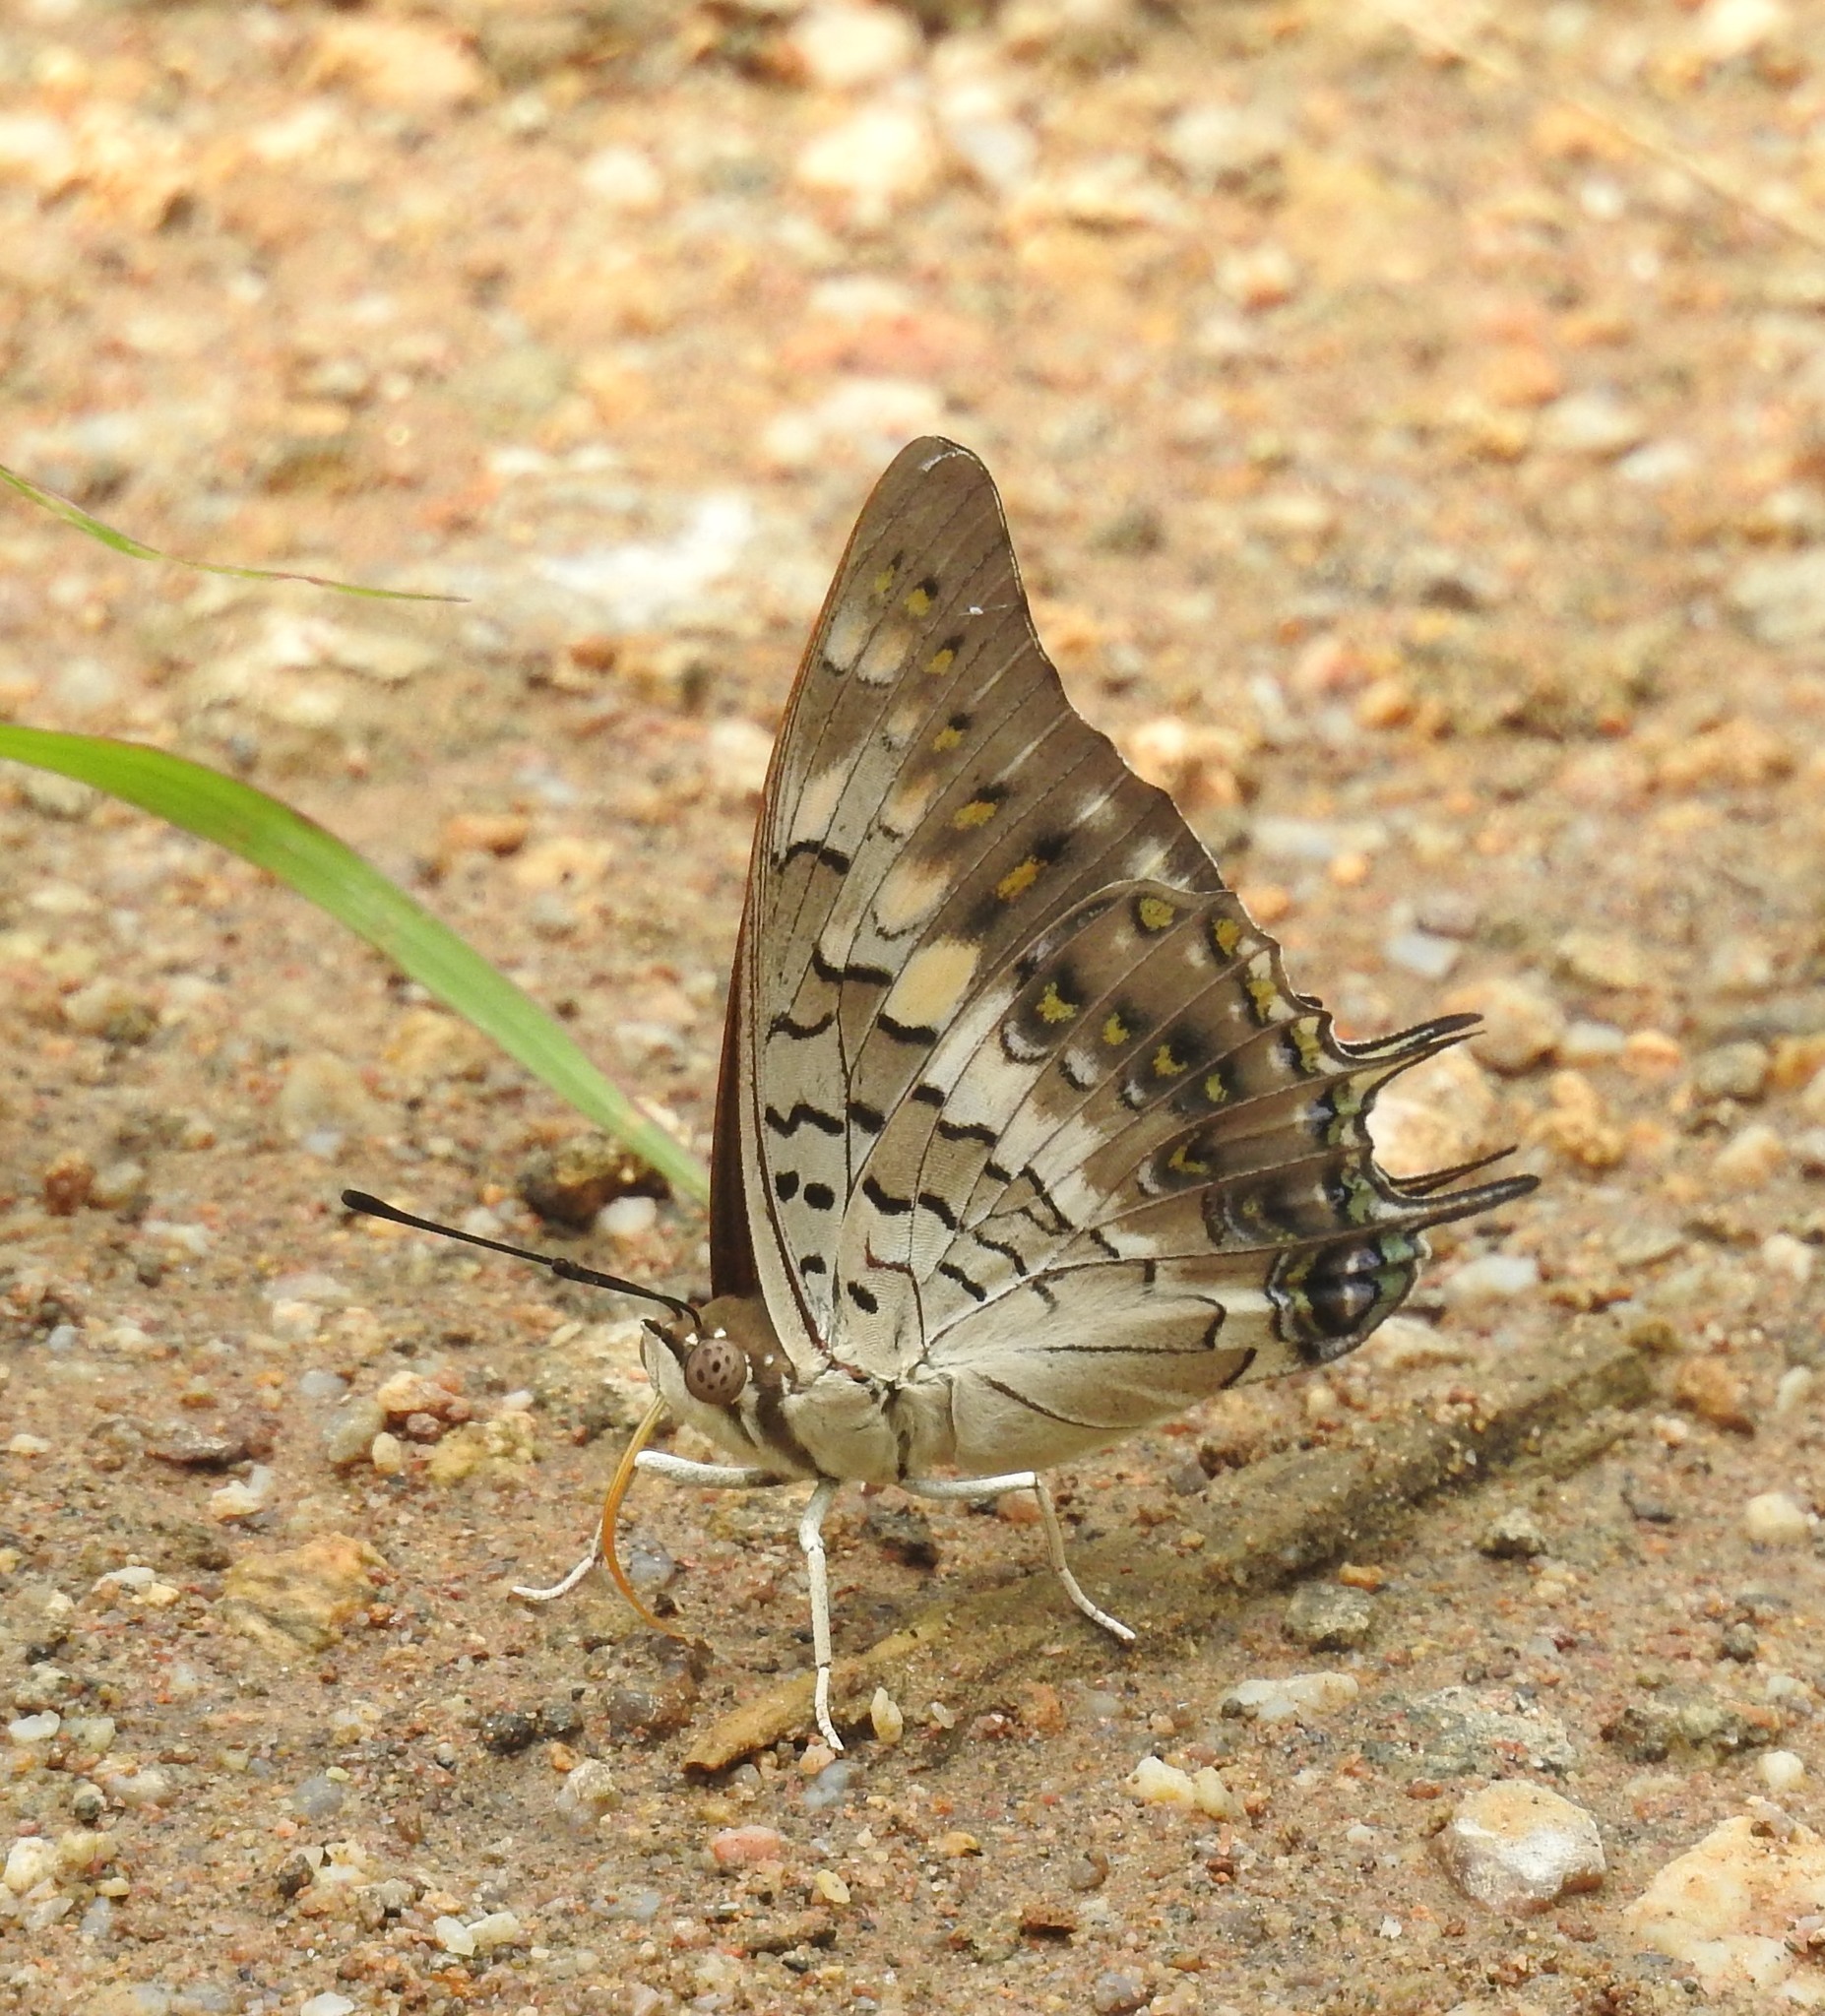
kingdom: Animalia
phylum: Arthropoda
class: Insecta
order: Lepidoptera
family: Nymphalidae
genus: Charaxes
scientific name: Charaxes solon
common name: Black rajah
